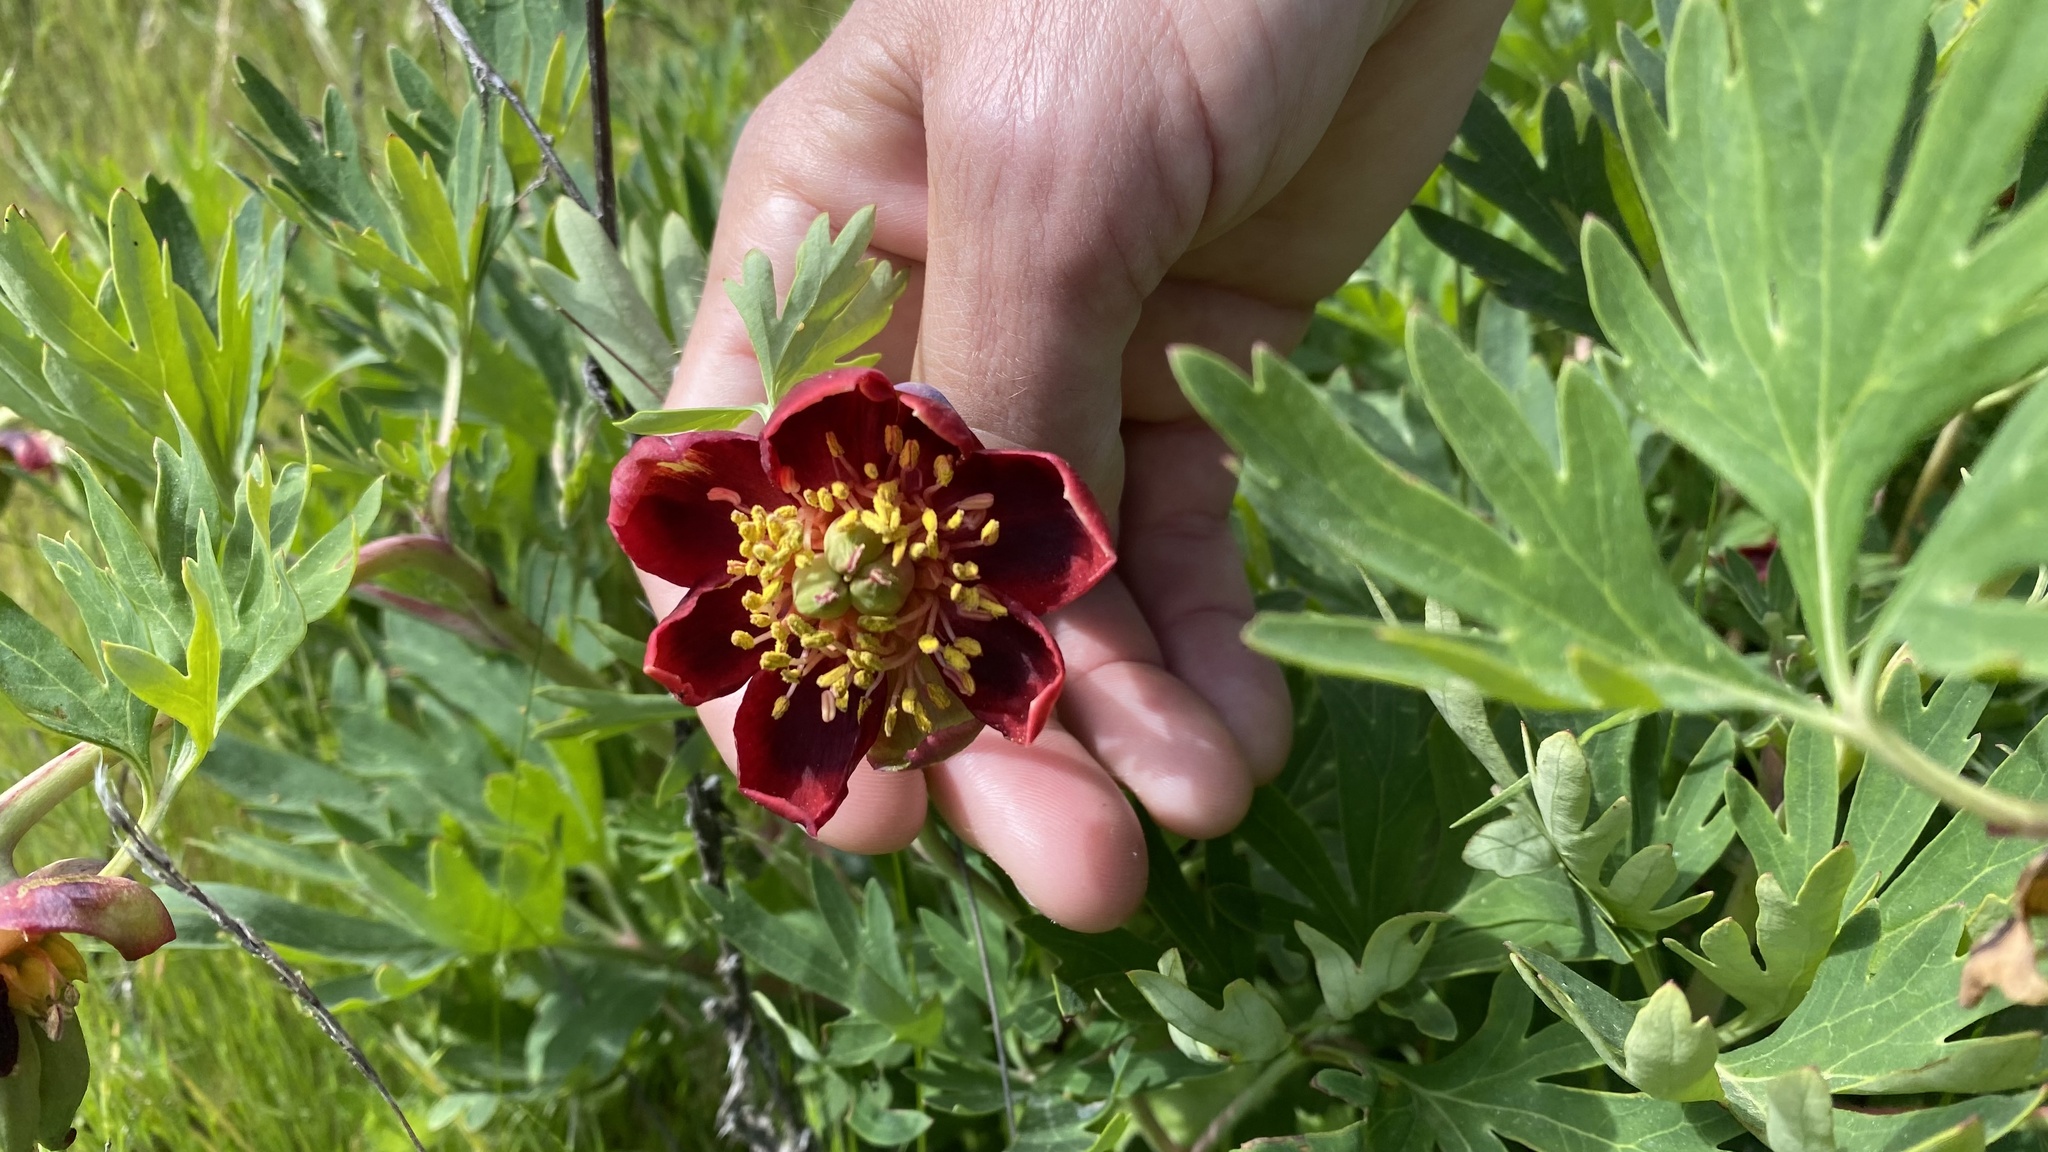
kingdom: Plantae
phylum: Tracheophyta
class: Magnoliopsida
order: Saxifragales
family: Paeoniaceae
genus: Paeonia
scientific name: Paeonia californica
